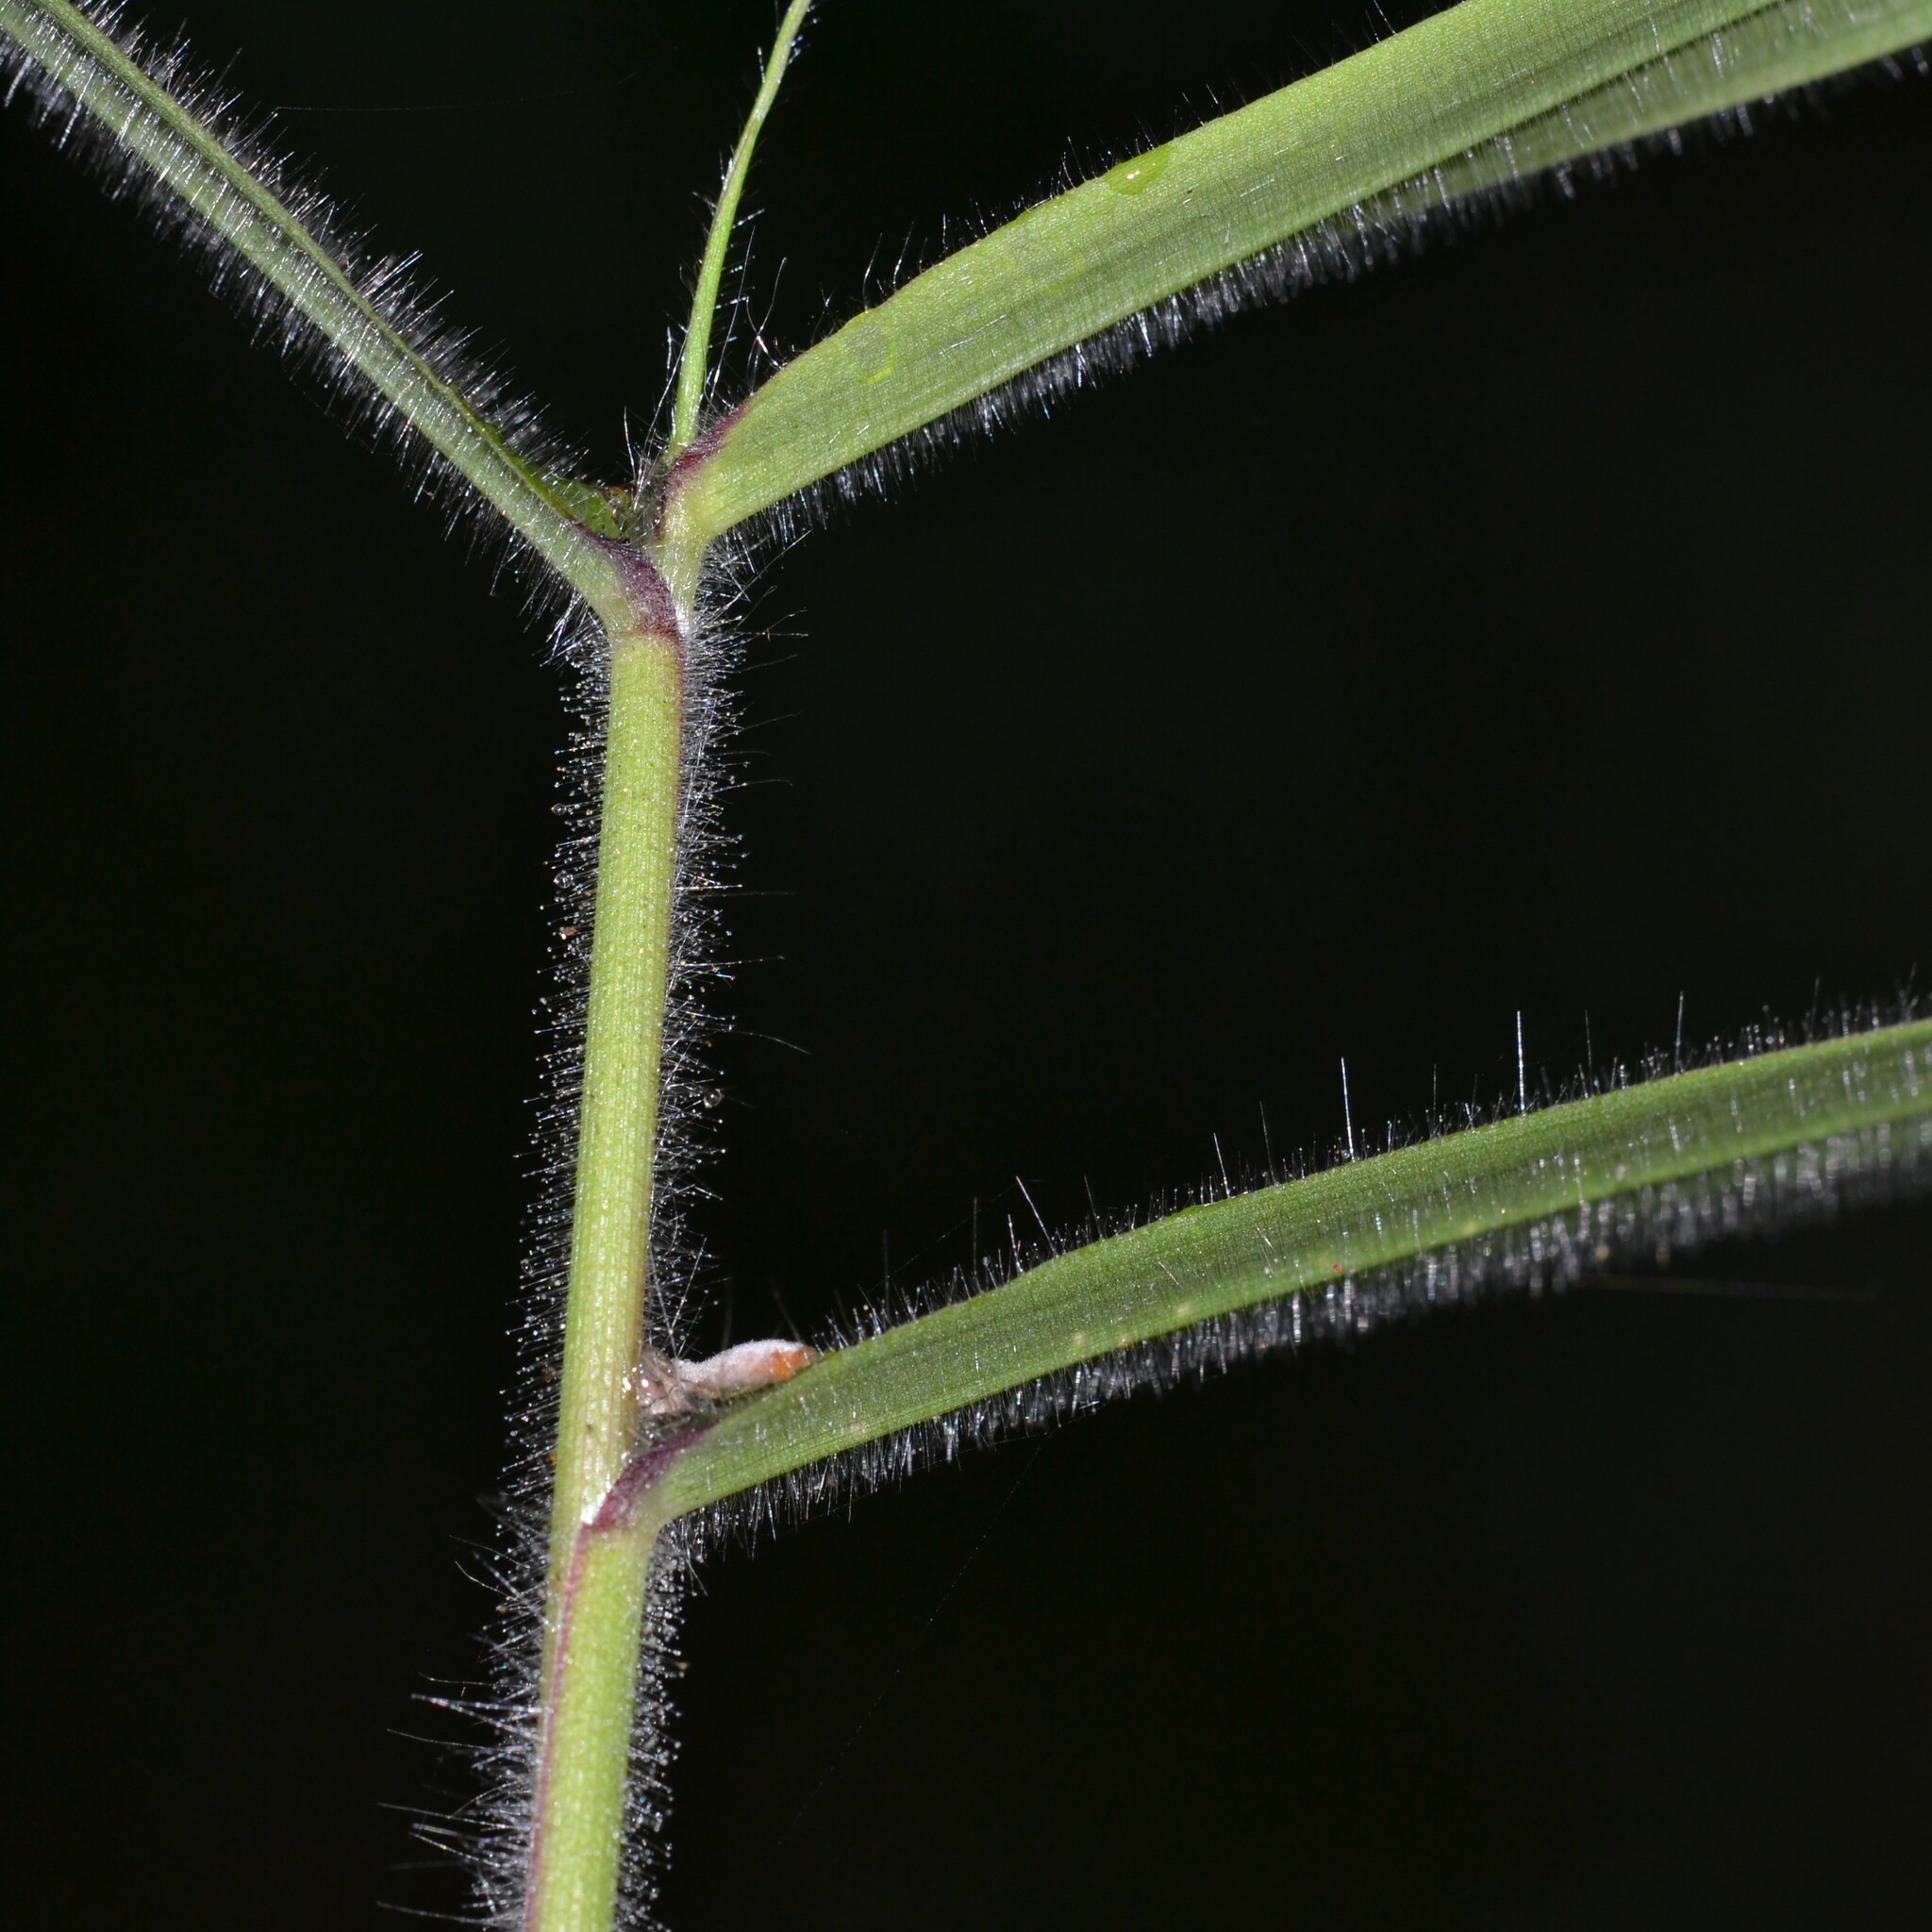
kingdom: Plantae
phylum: Tracheophyta
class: Liliopsida
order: Poales
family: Poaceae
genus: Melinis
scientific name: Melinis minutiflora
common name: Molassesgrass
